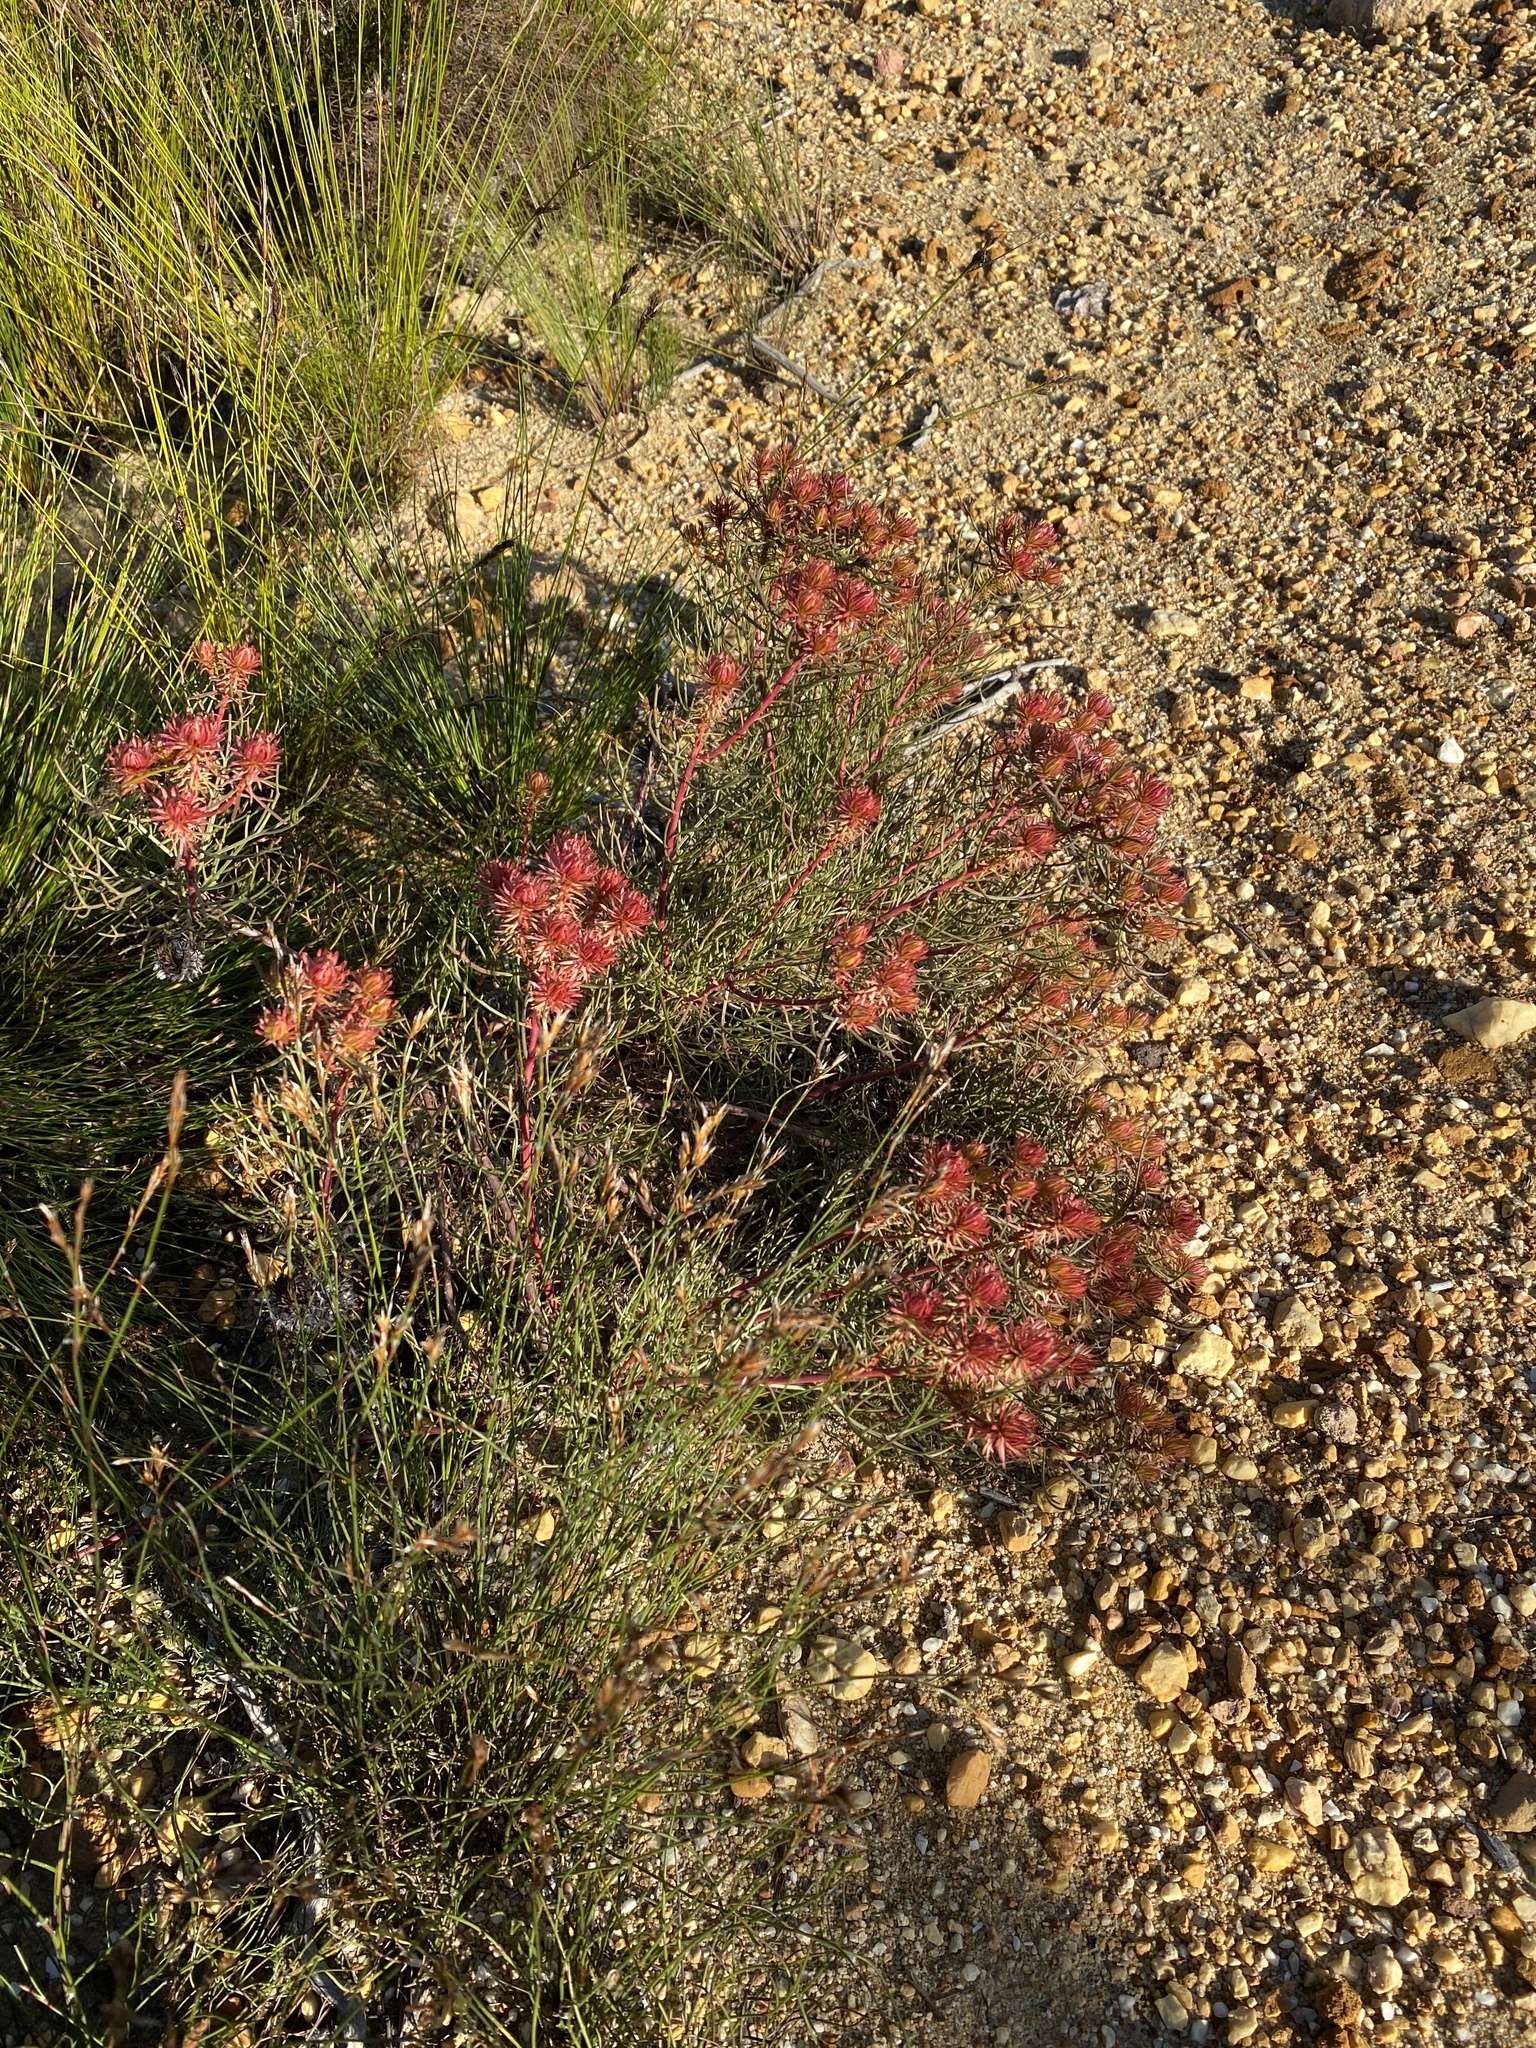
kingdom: Plantae
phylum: Tracheophyta
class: Magnoliopsida
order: Proteales
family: Proteaceae
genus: Serruria
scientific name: Serruria phylicoides
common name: Bearded spiderhead
